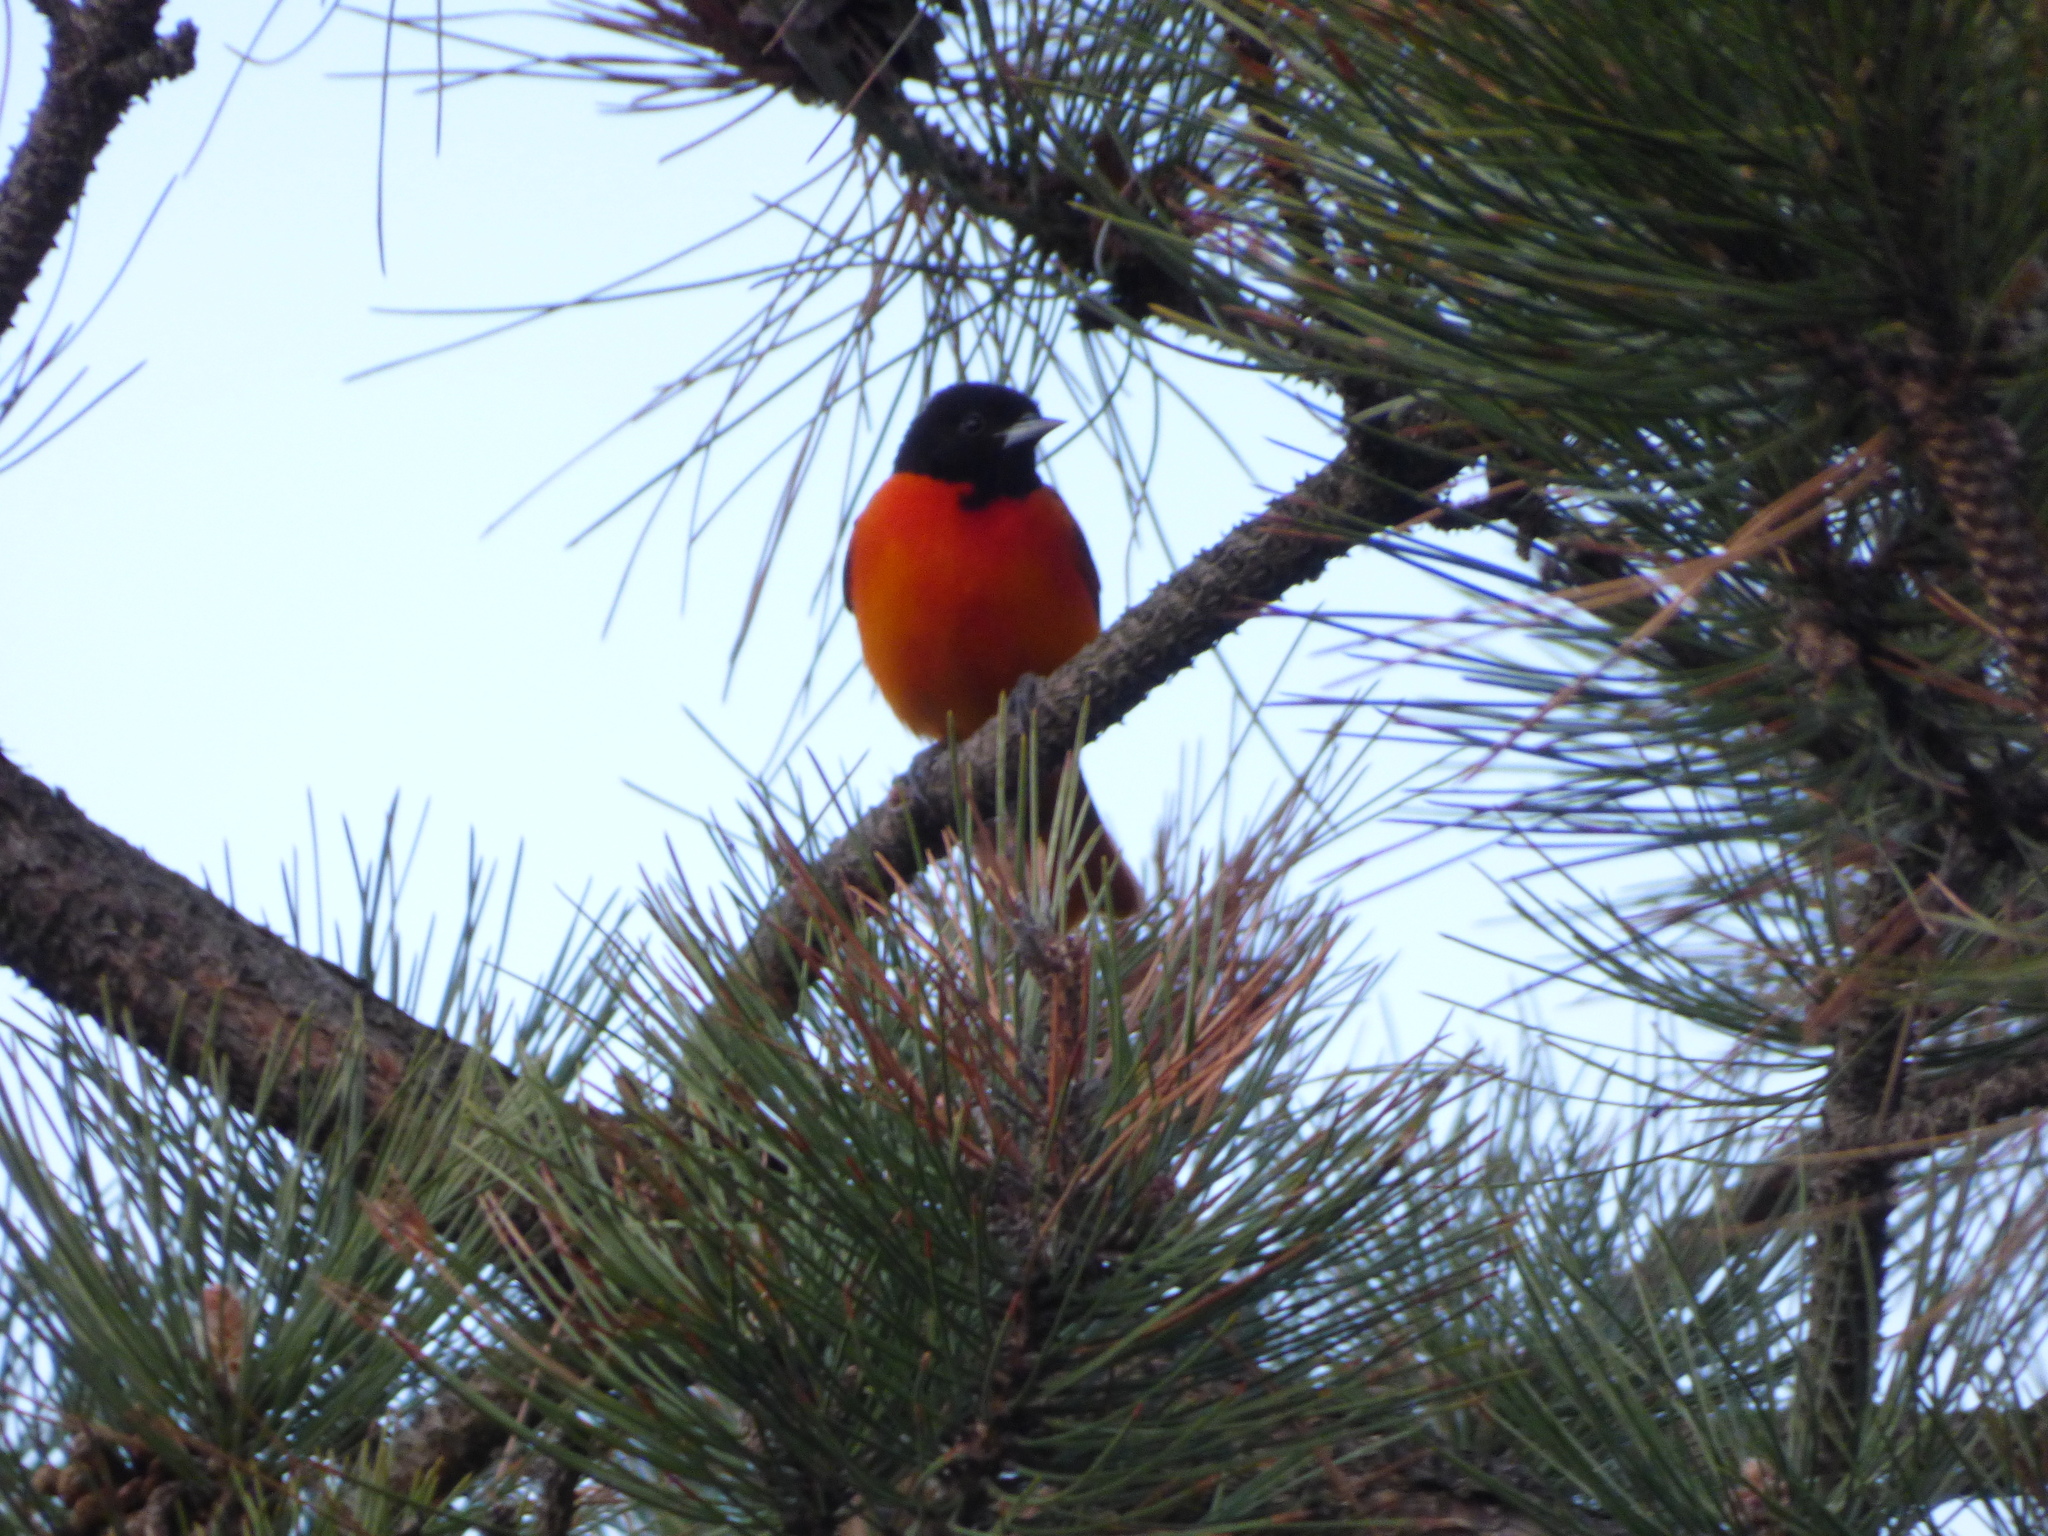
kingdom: Animalia
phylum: Chordata
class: Aves
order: Passeriformes
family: Icteridae
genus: Icterus
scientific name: Icterus galbula
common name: Baltimore oriole
